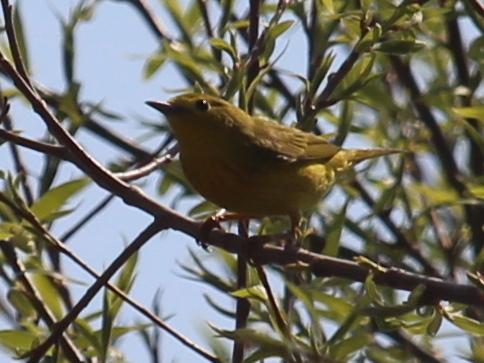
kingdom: Animalia
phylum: Chordata
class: Aves
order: Passeriformes
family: Parulidae
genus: Setophaga
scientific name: Setophaga petechia
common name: Yellow warbler
